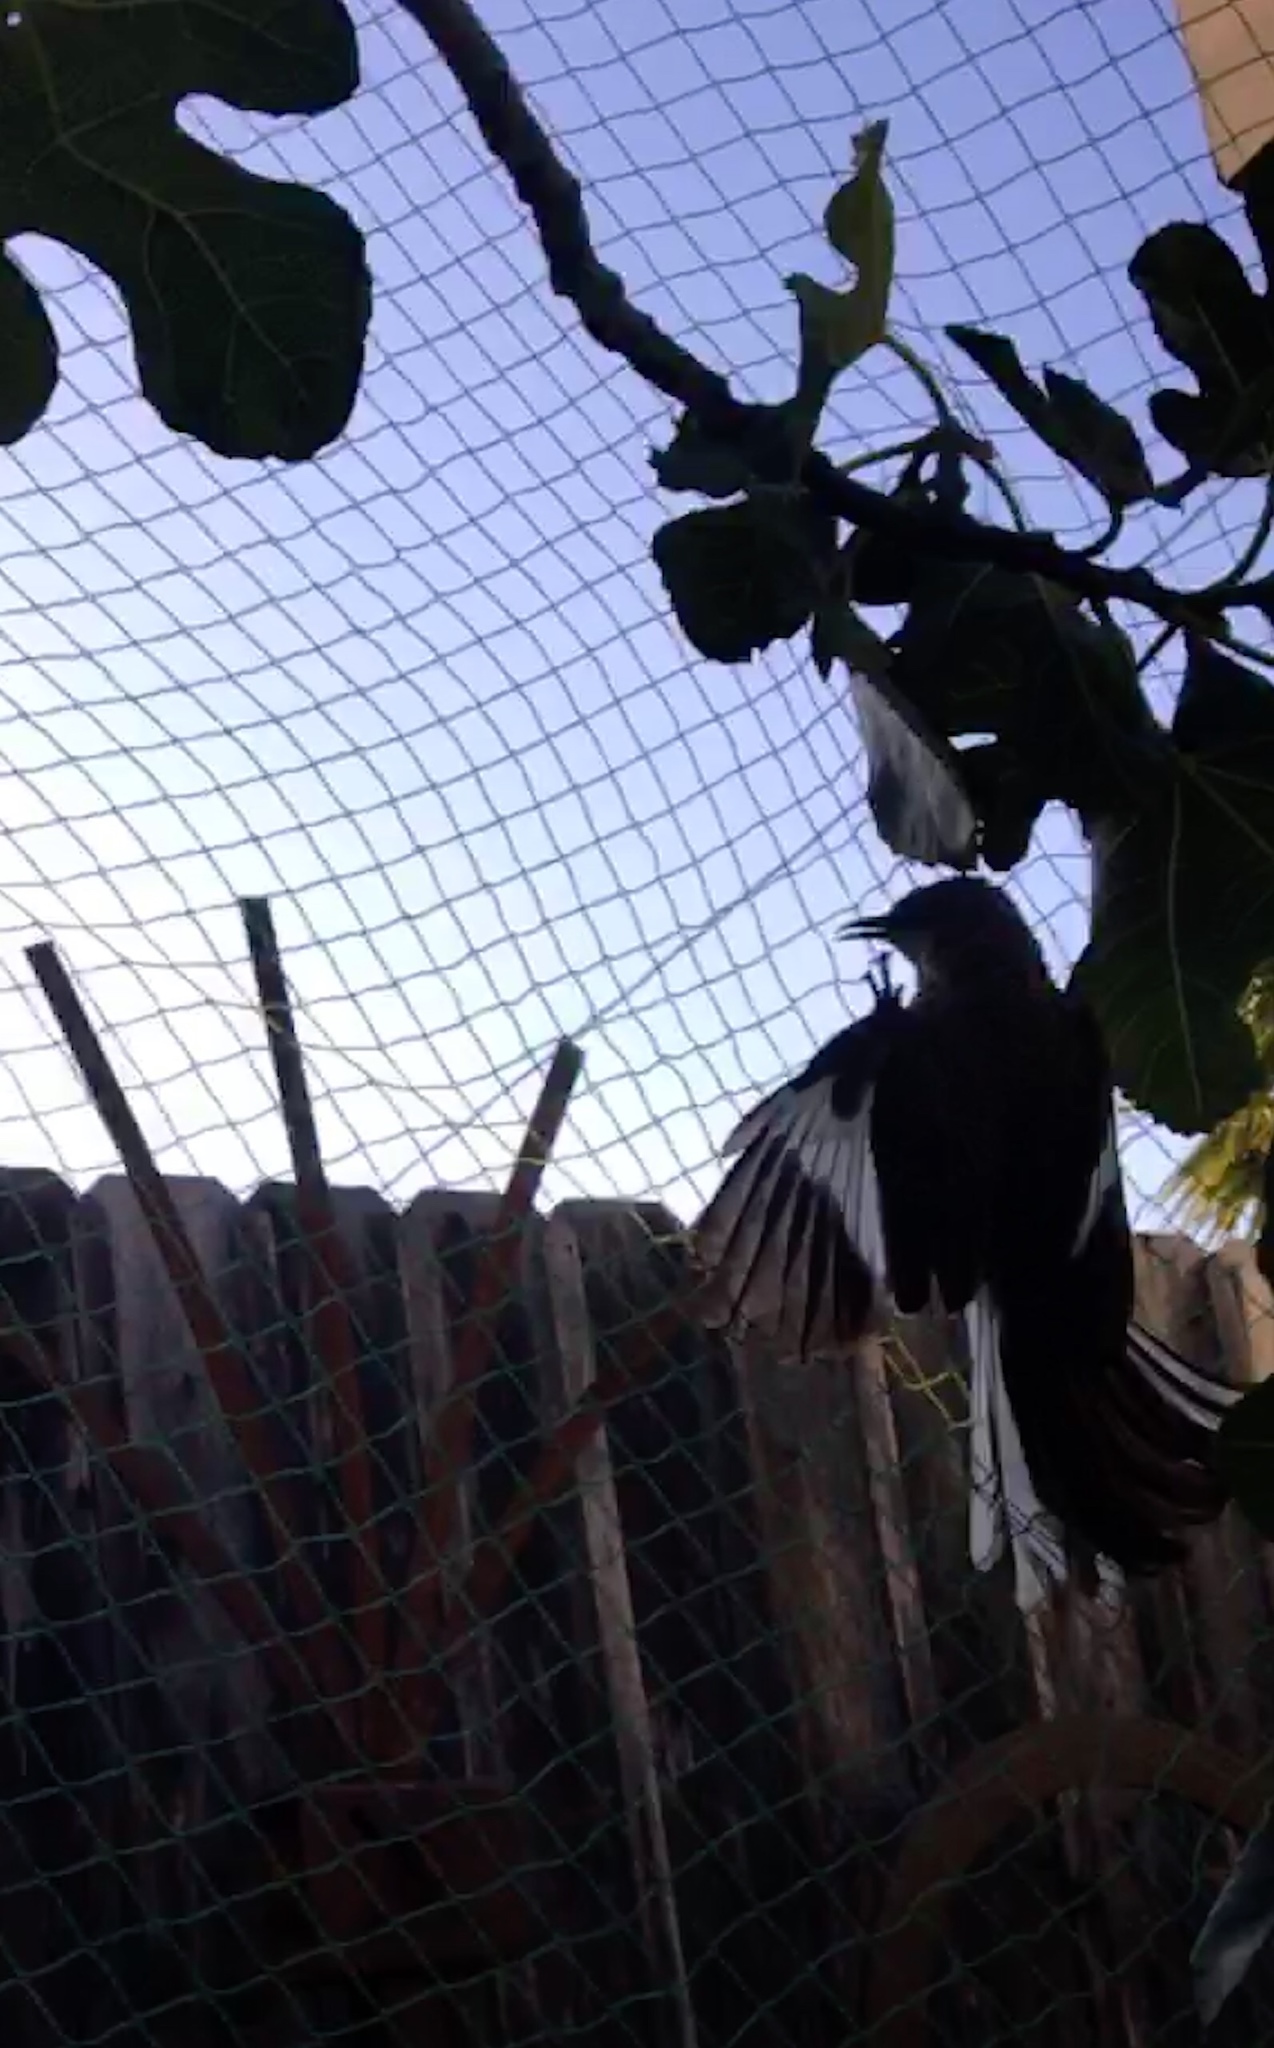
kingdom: Animalia
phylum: Chordata
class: Aves
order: Passeriformes
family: Mimidae
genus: Mimus
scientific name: Mimus polyglottos
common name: Northern mockingbird
